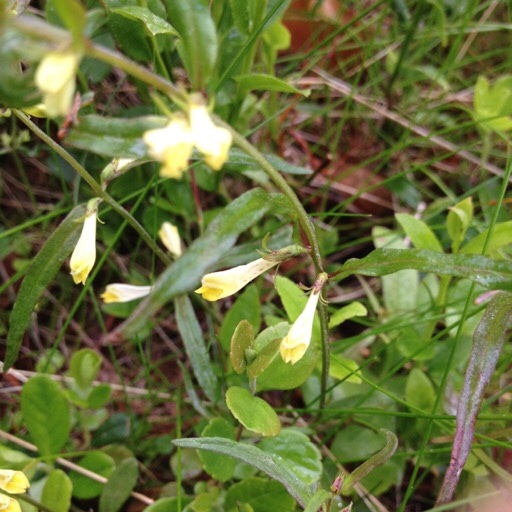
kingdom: Plantae
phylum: Tracheophyta
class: Magnoliopsida
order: Lamiales
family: Orobanchaceae
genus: Melampyrum
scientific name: Melampyrum pratense
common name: Common cow-wheat
